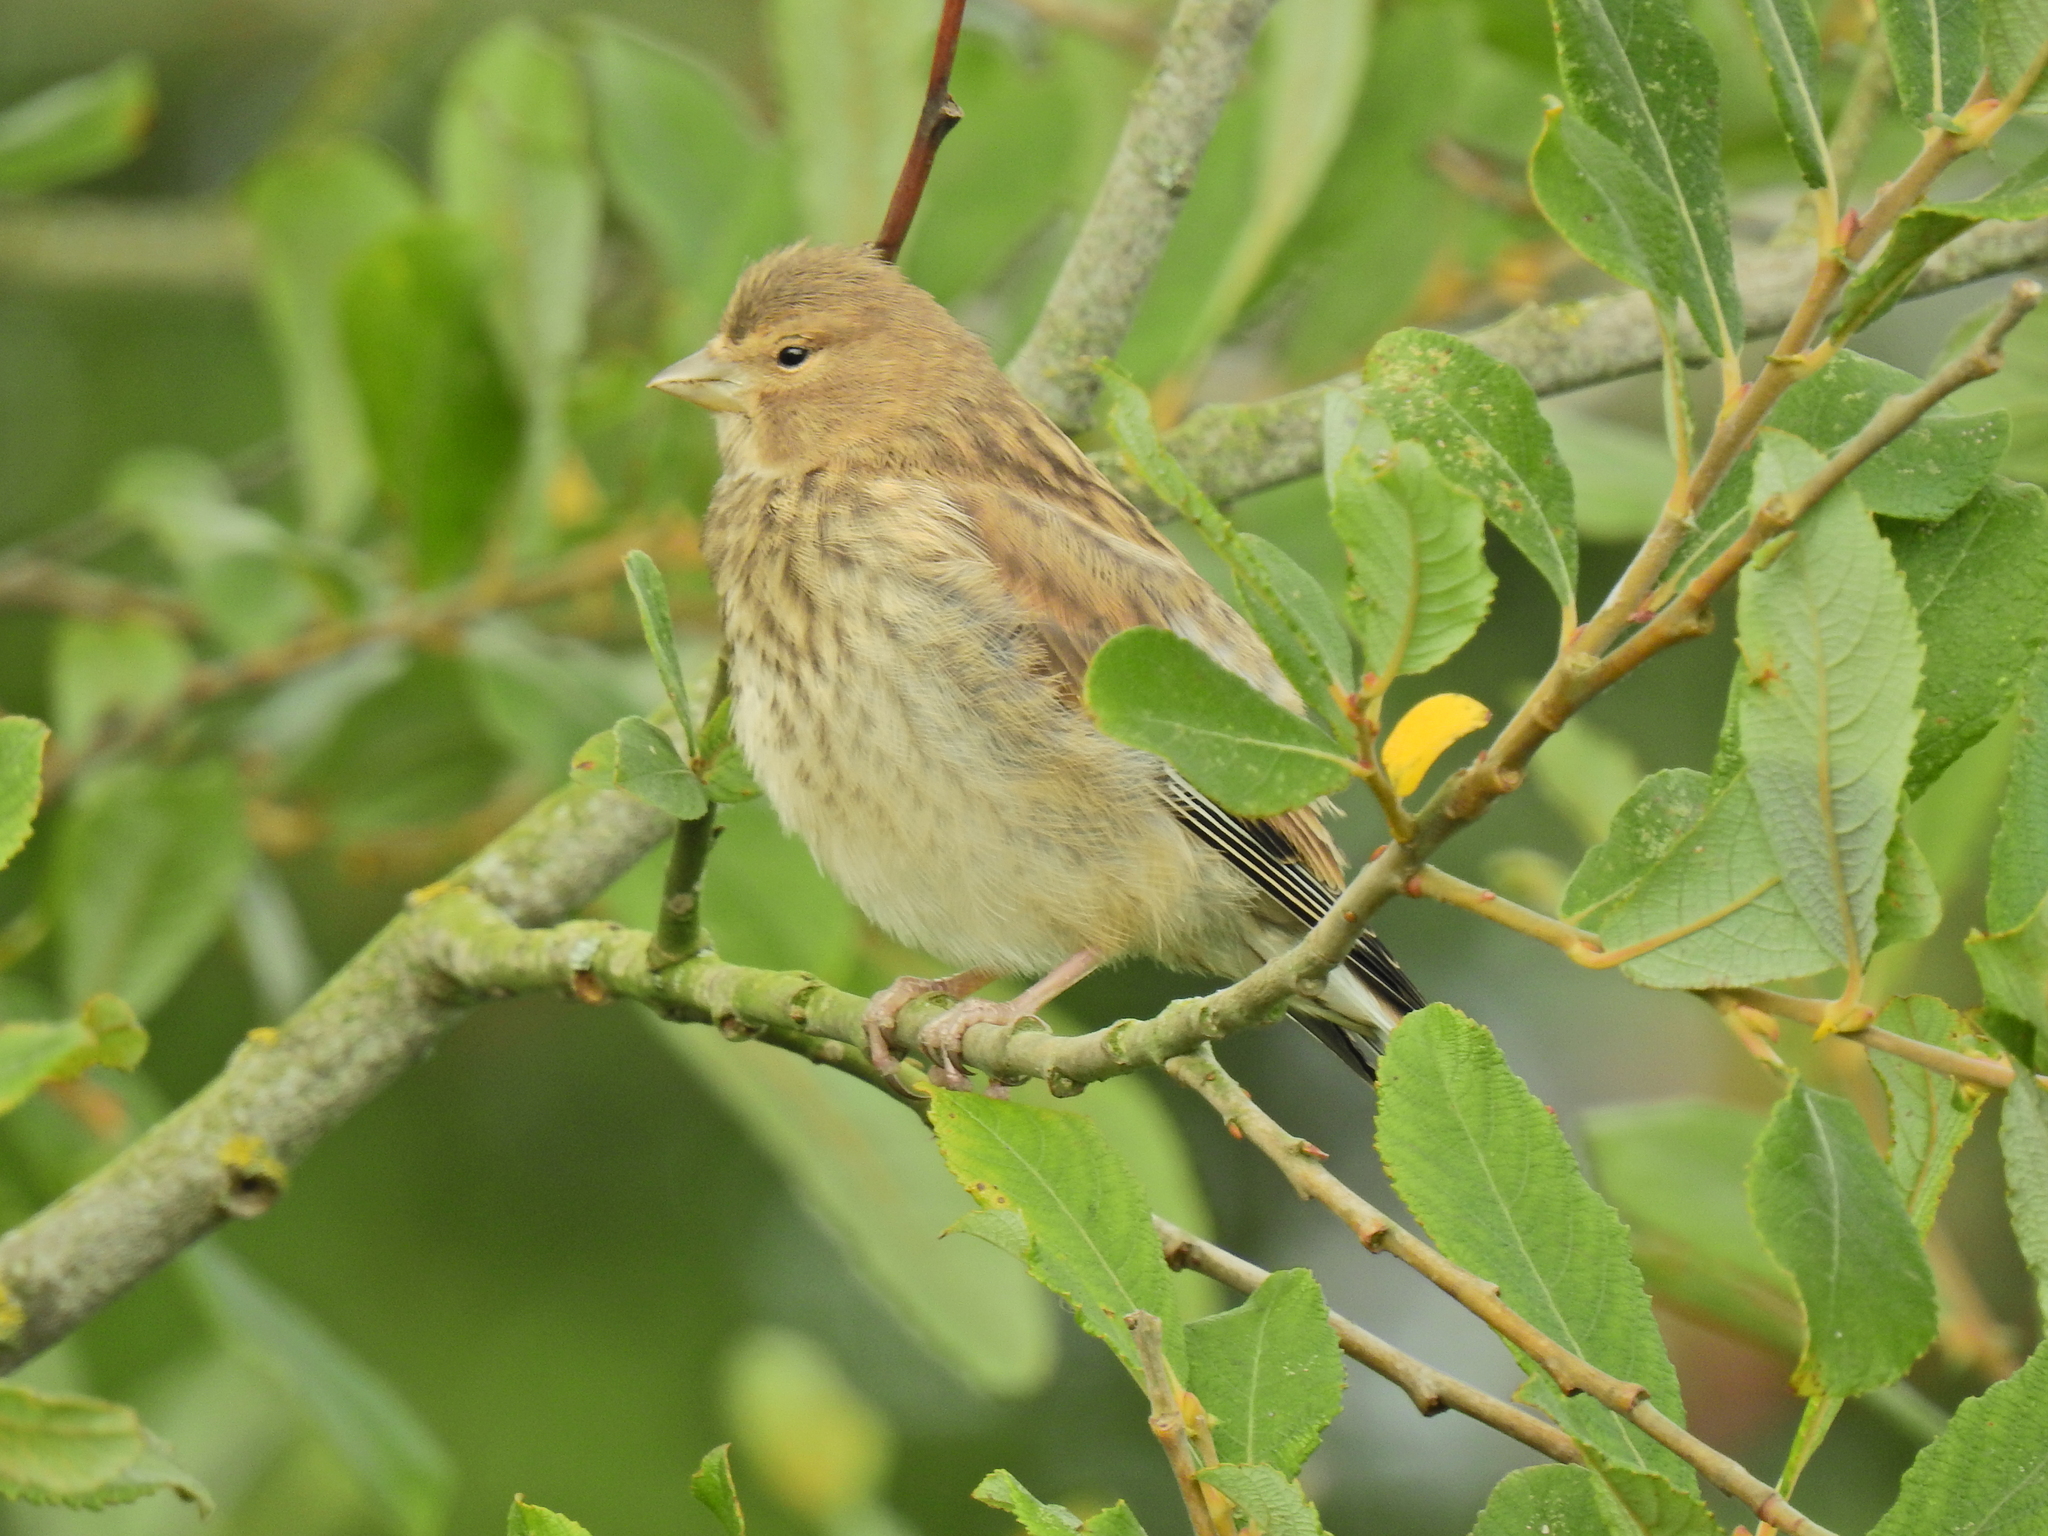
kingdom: Animalia
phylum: Chordata
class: Aves
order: Passeriformes
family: Fringillidae
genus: Linaria
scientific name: Linaria cannabina
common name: Common linnet
